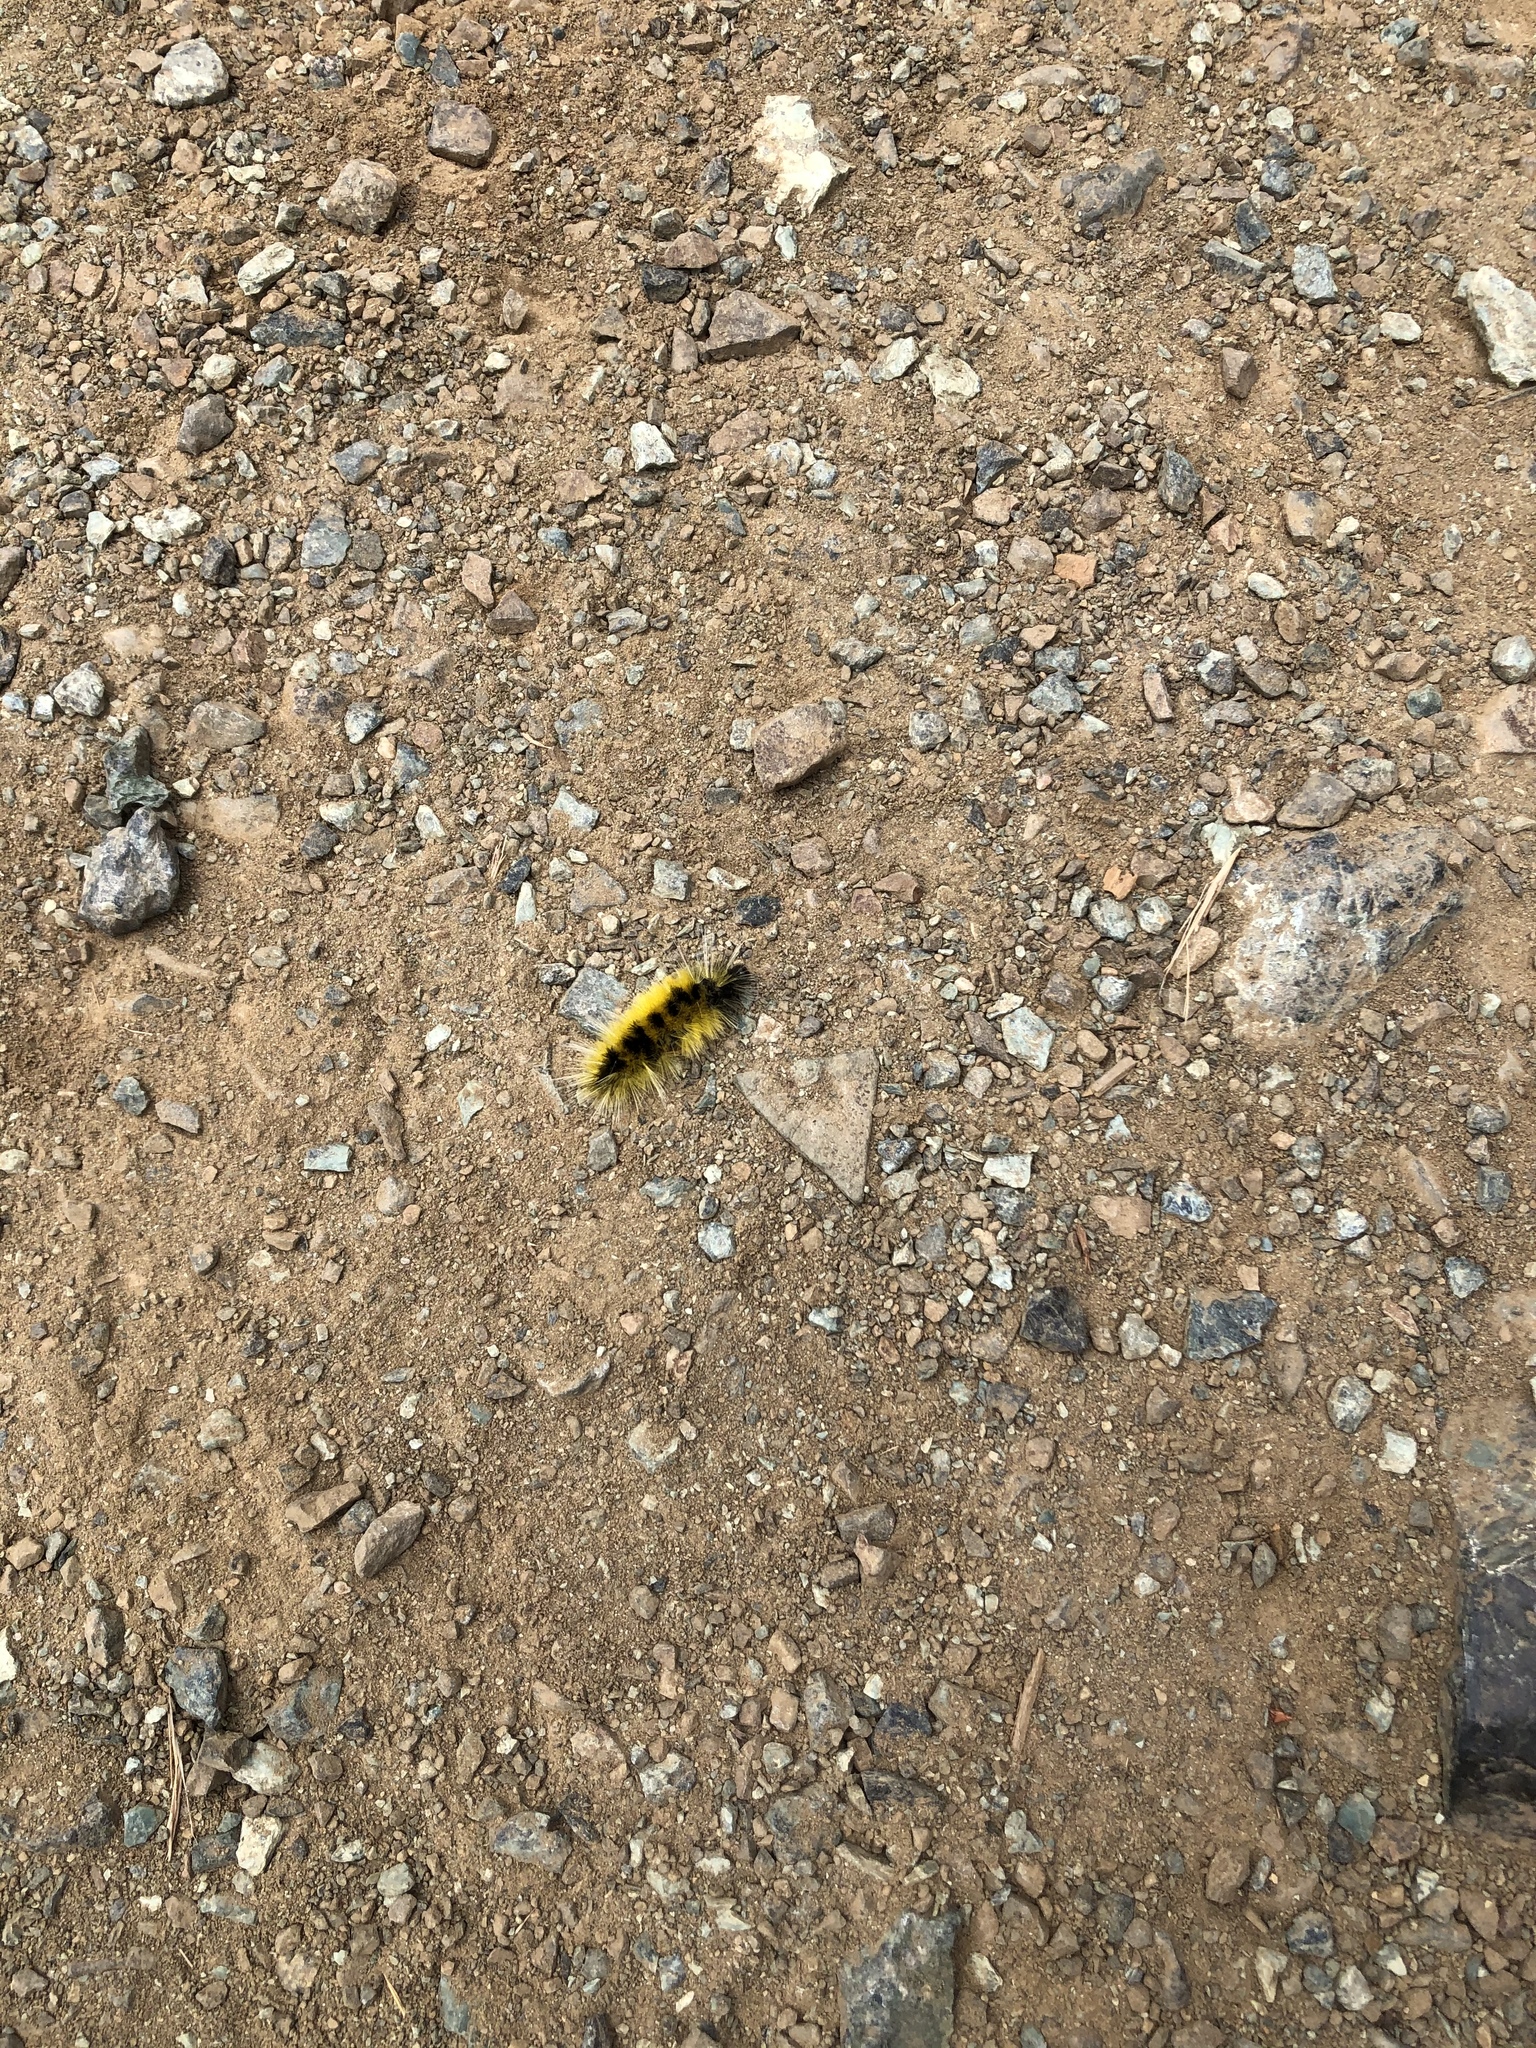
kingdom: Animalia
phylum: Arthropoda
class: Insecta
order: Lepidoptera
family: Erebidae
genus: Lophocampa
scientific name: Lophocampa maculata
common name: Spotted tussock moth
